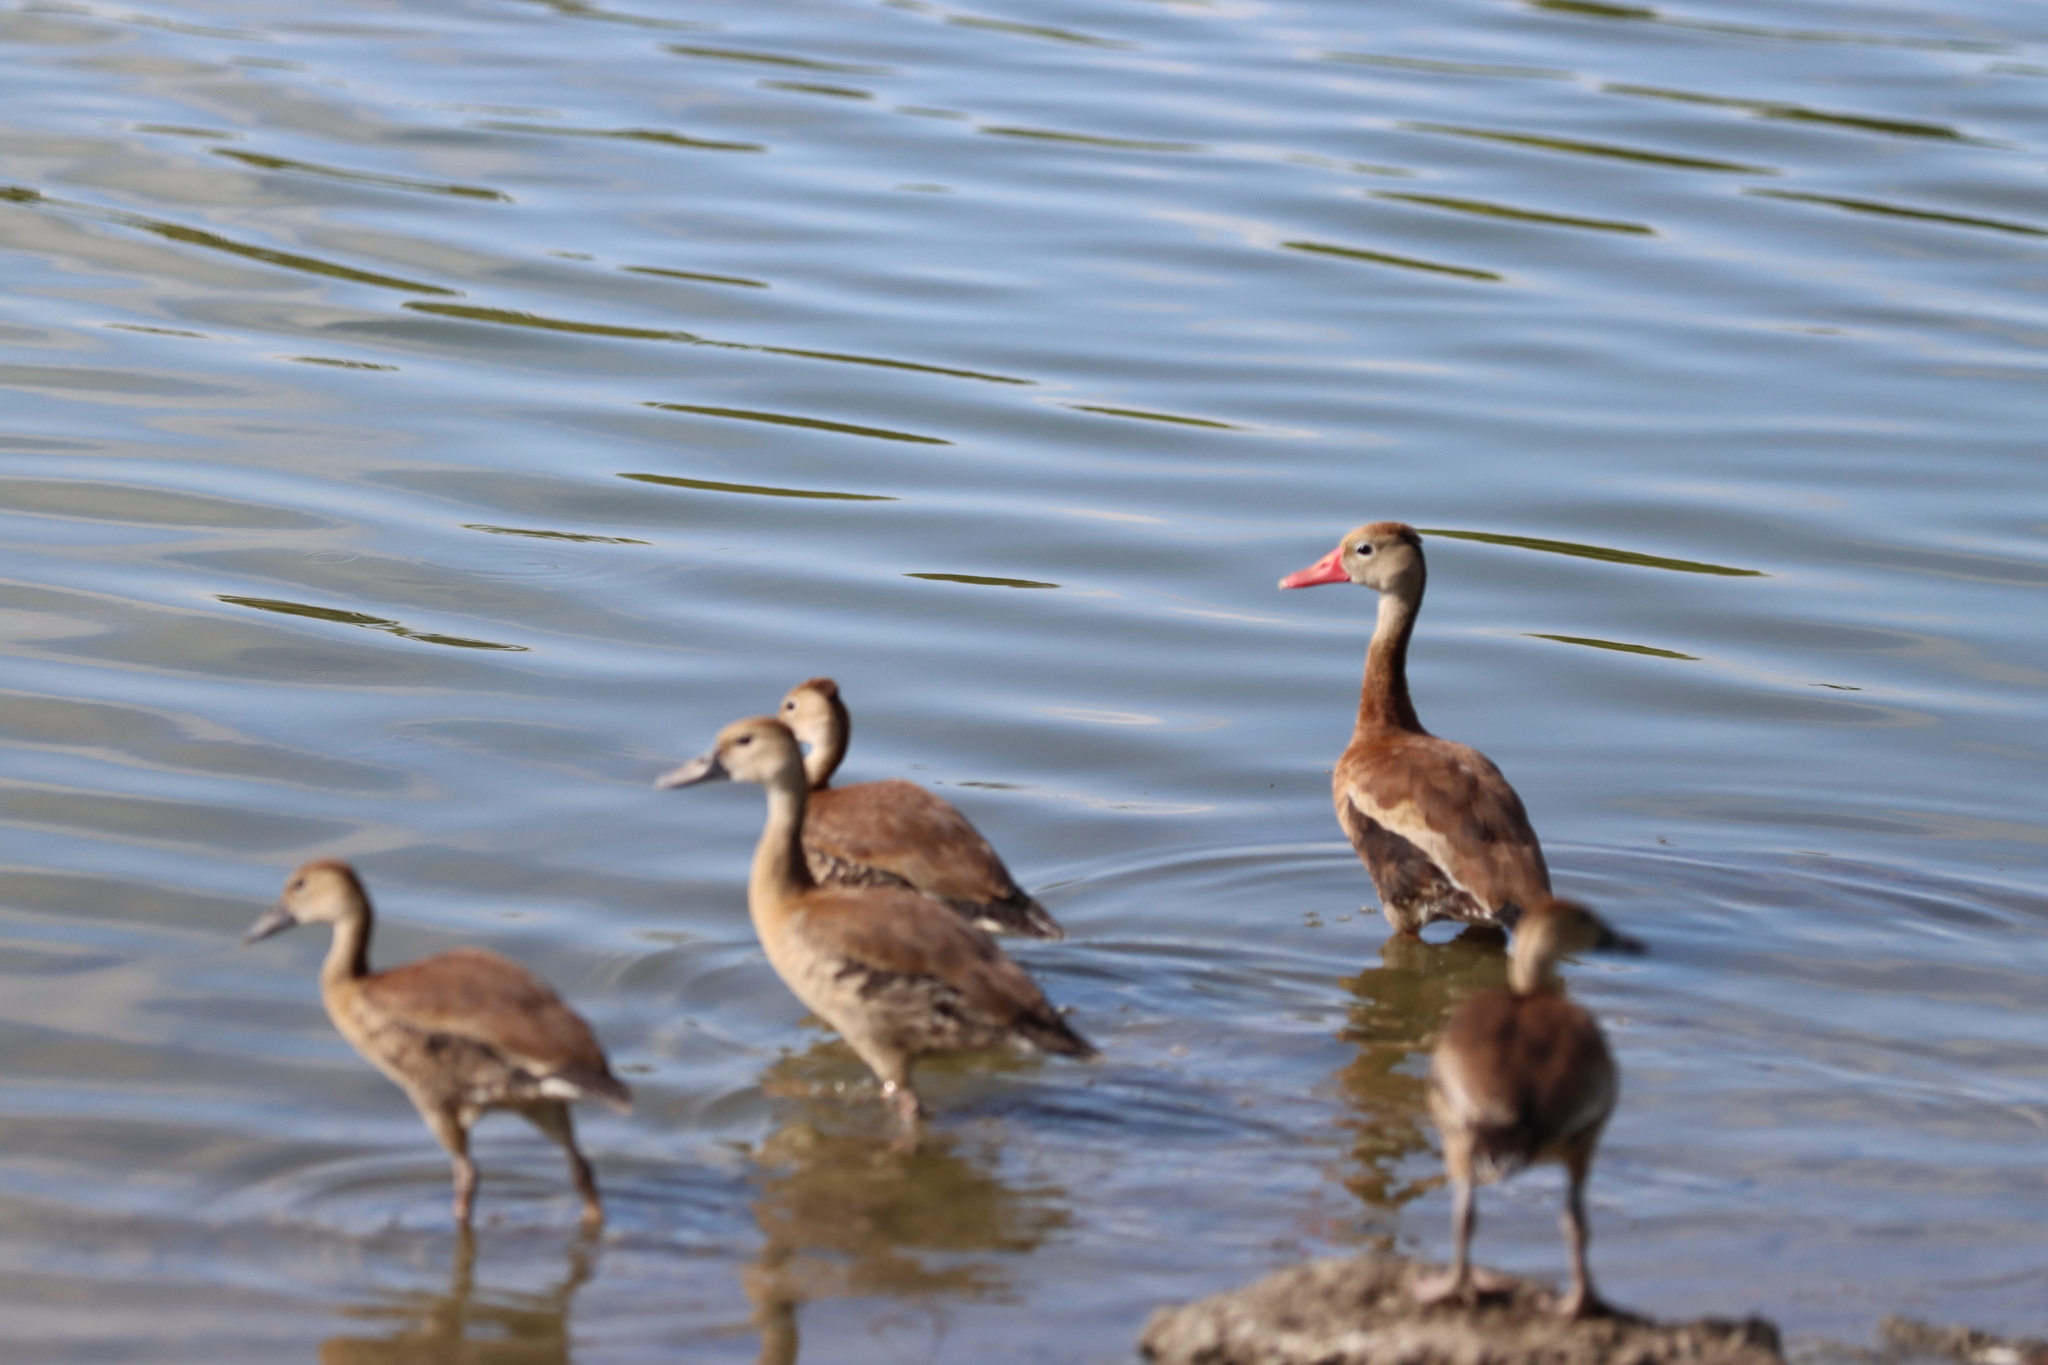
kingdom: Animalia
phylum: Chordata
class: Aves
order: Anseriformes
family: Anatidae
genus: Dendrocygna
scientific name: Dendrocygna autumnalis
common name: Black-bellied whistling duck
